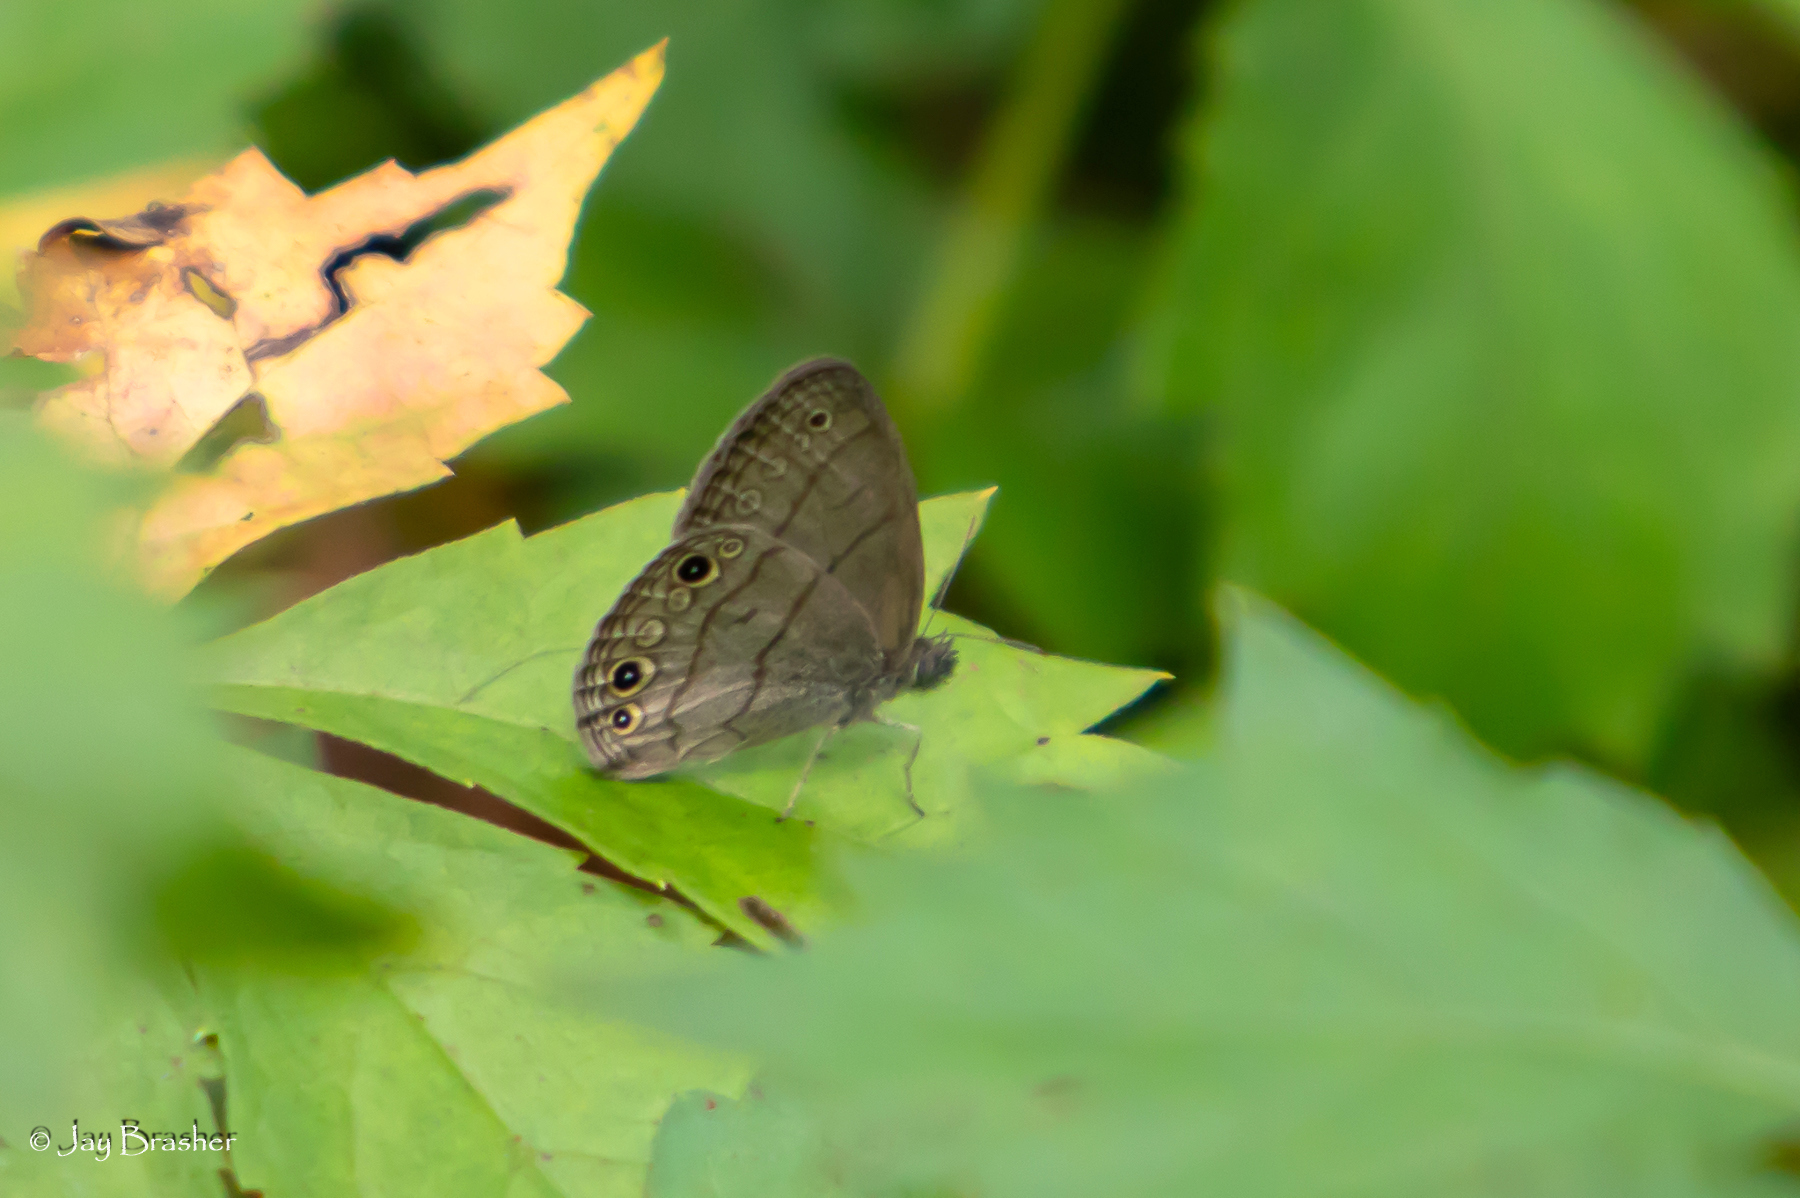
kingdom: Animalia
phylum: Arthropoda
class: Insecta
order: Lepidoptera
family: Nymphalidae
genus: Hermeuptychia
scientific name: Hermeuptychia hermes
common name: Hermes satyr
